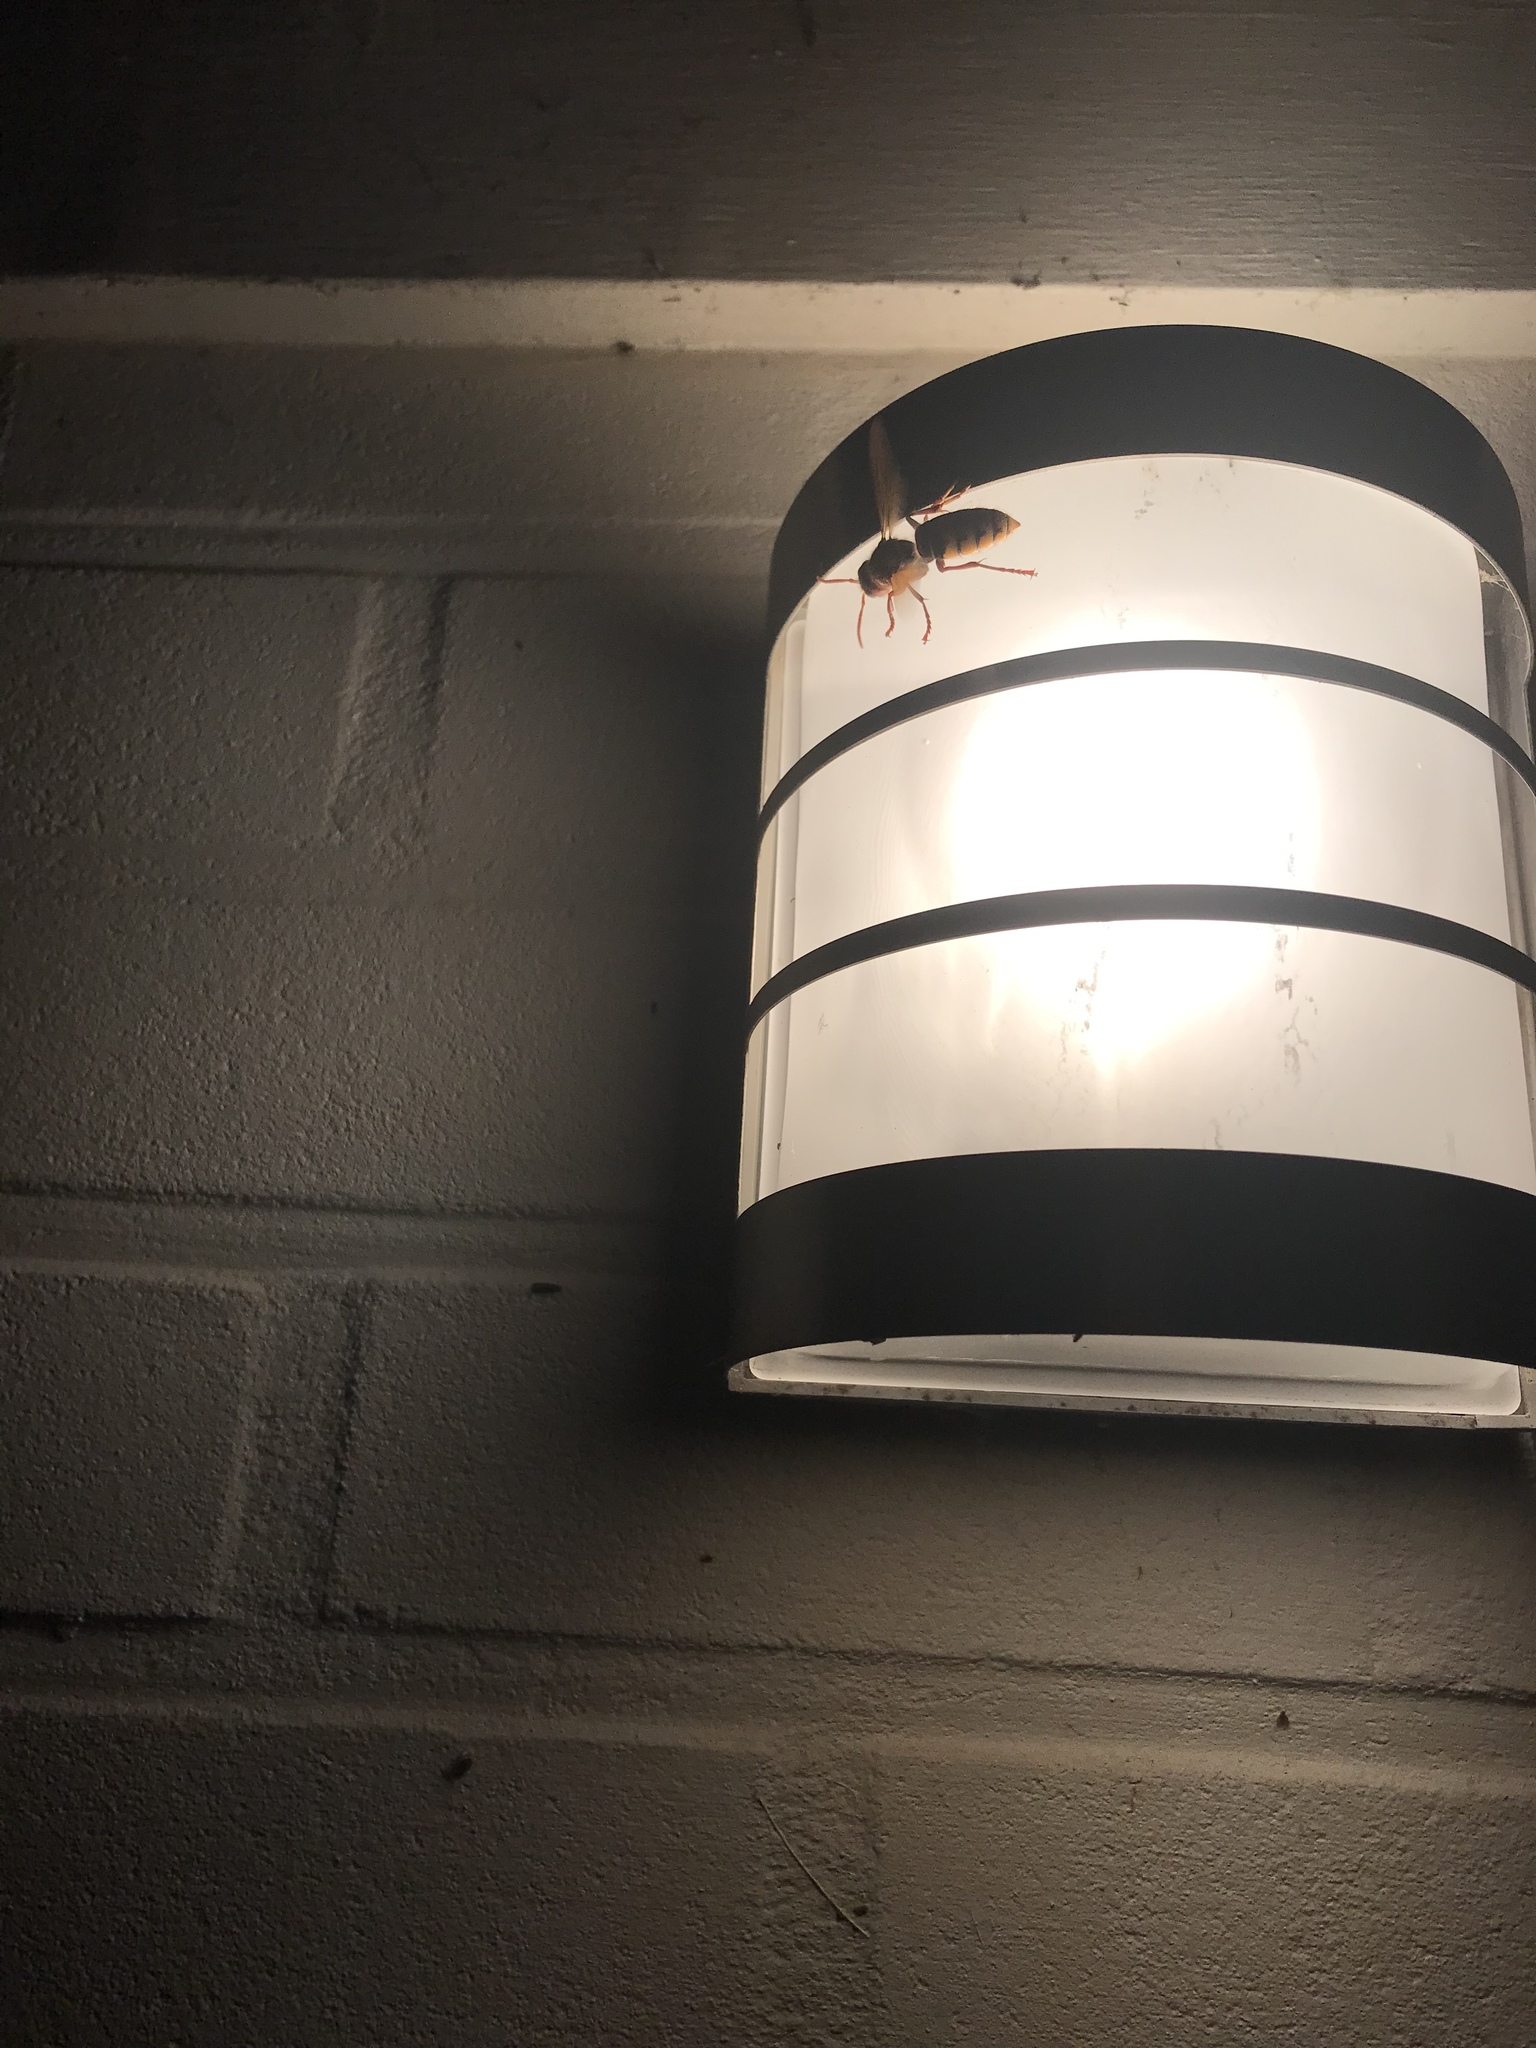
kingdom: Animalia
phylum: Arthropoda
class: Insecta
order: Hymenoptera
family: Vespidae
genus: Vespa
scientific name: Vespa crabro
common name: Hornet
